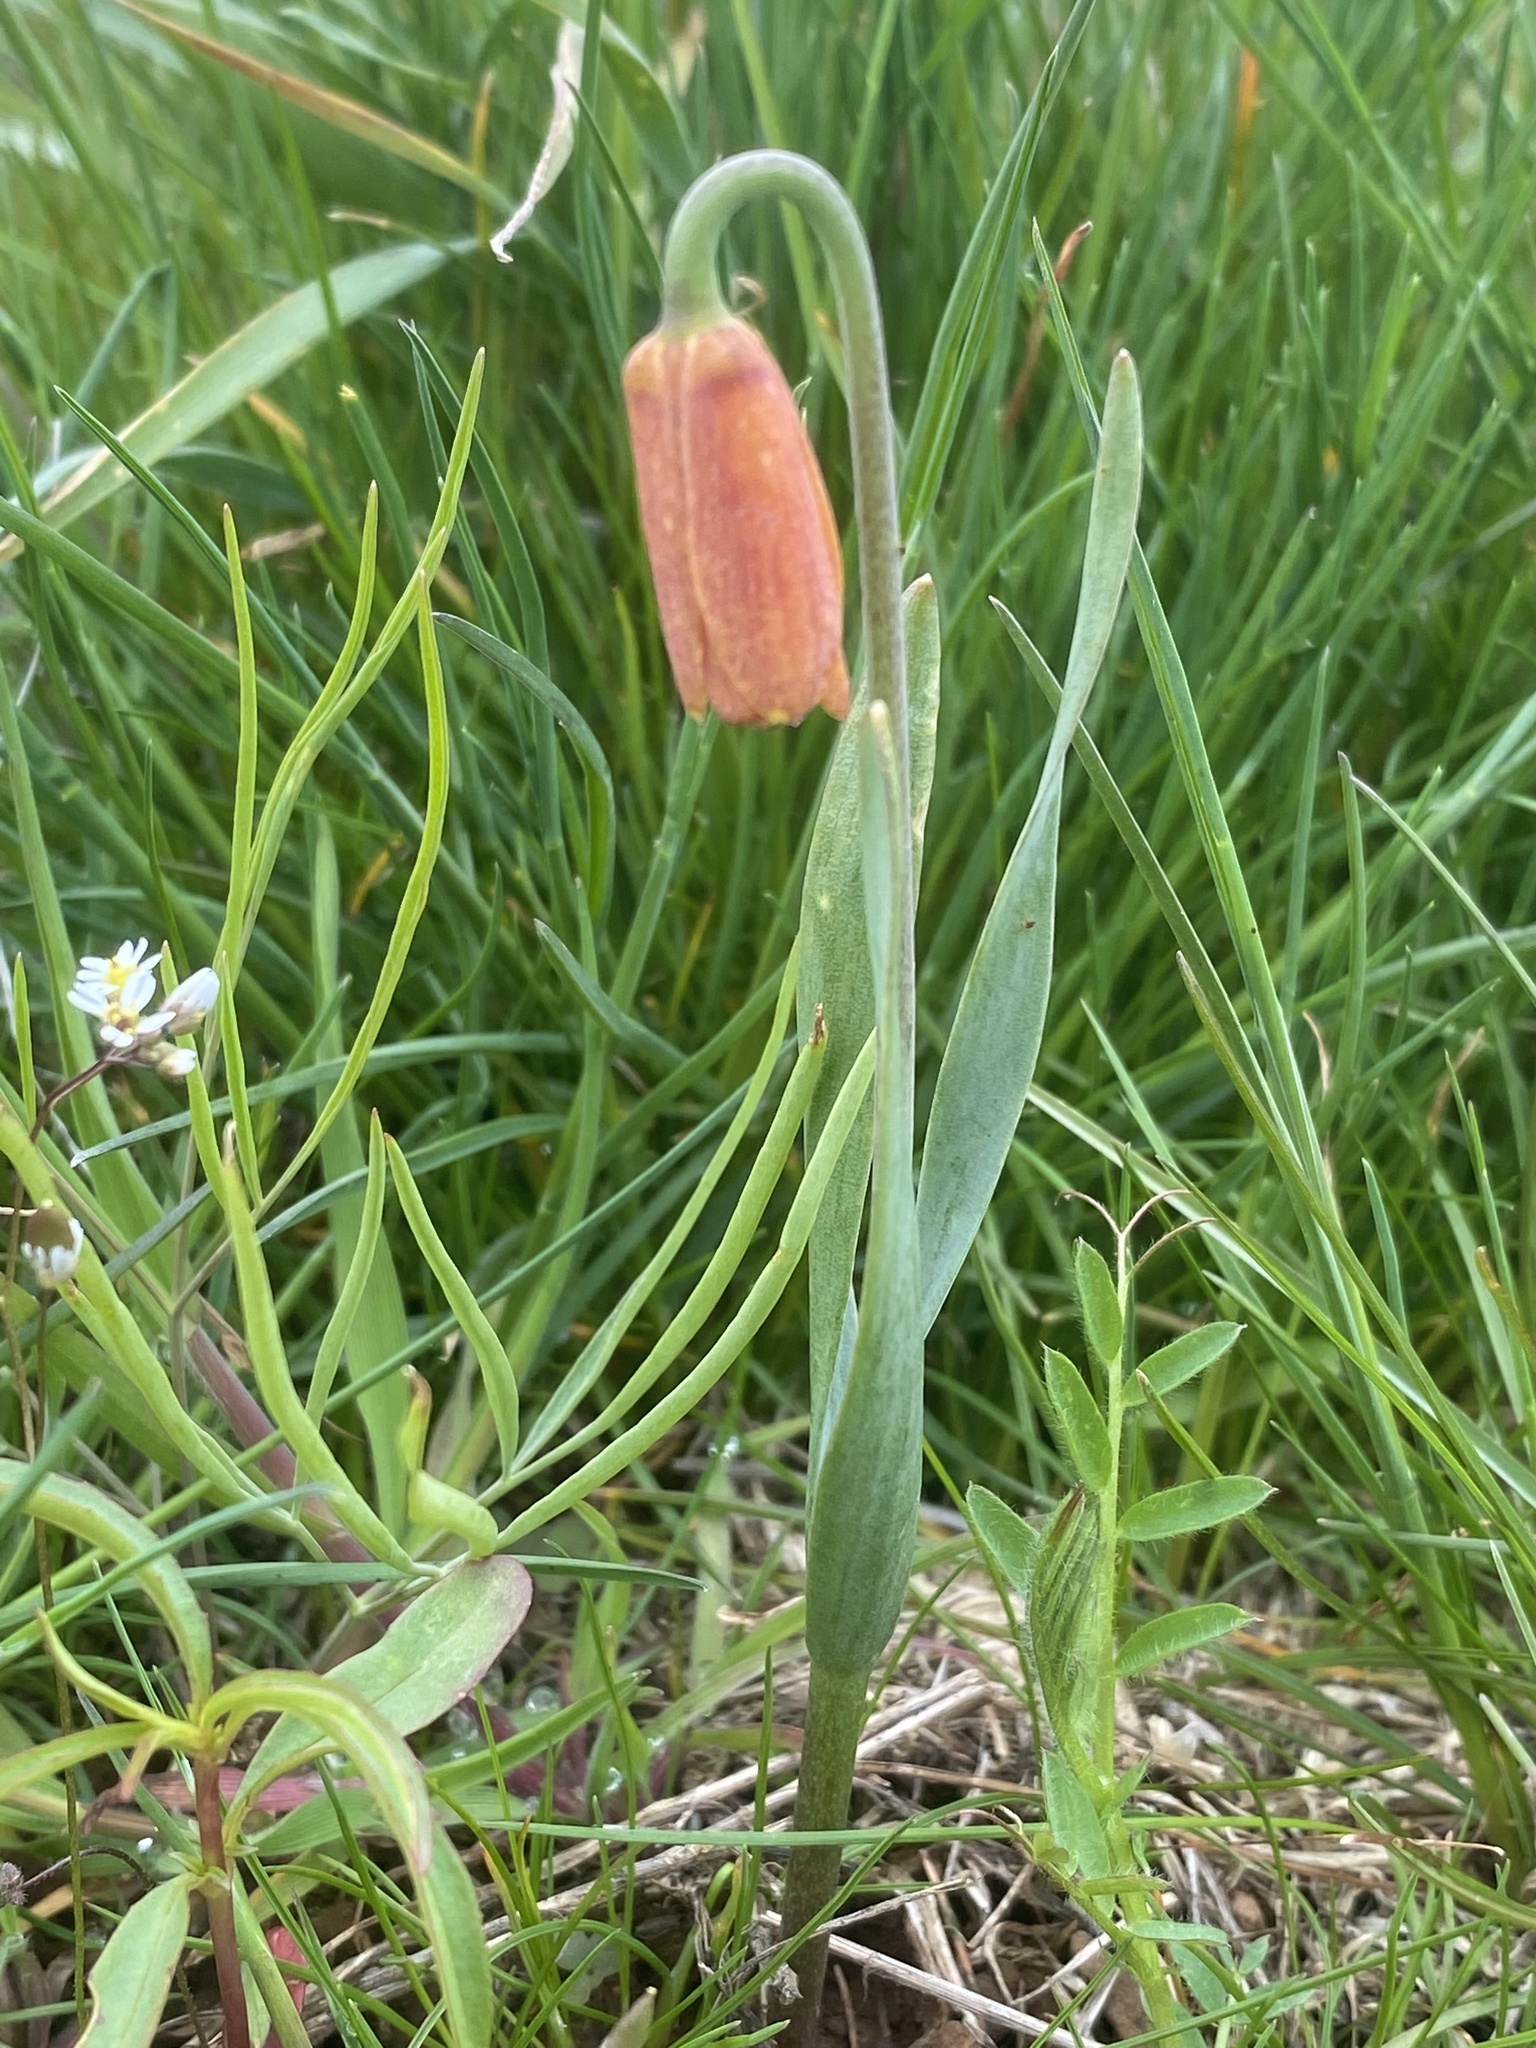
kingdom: Plantae
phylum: Tracheophyta
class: Liliopsida
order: Liliales
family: Liliaceae
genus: Fritillaria
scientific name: Fritillaria pudica
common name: Yellow fritillary
